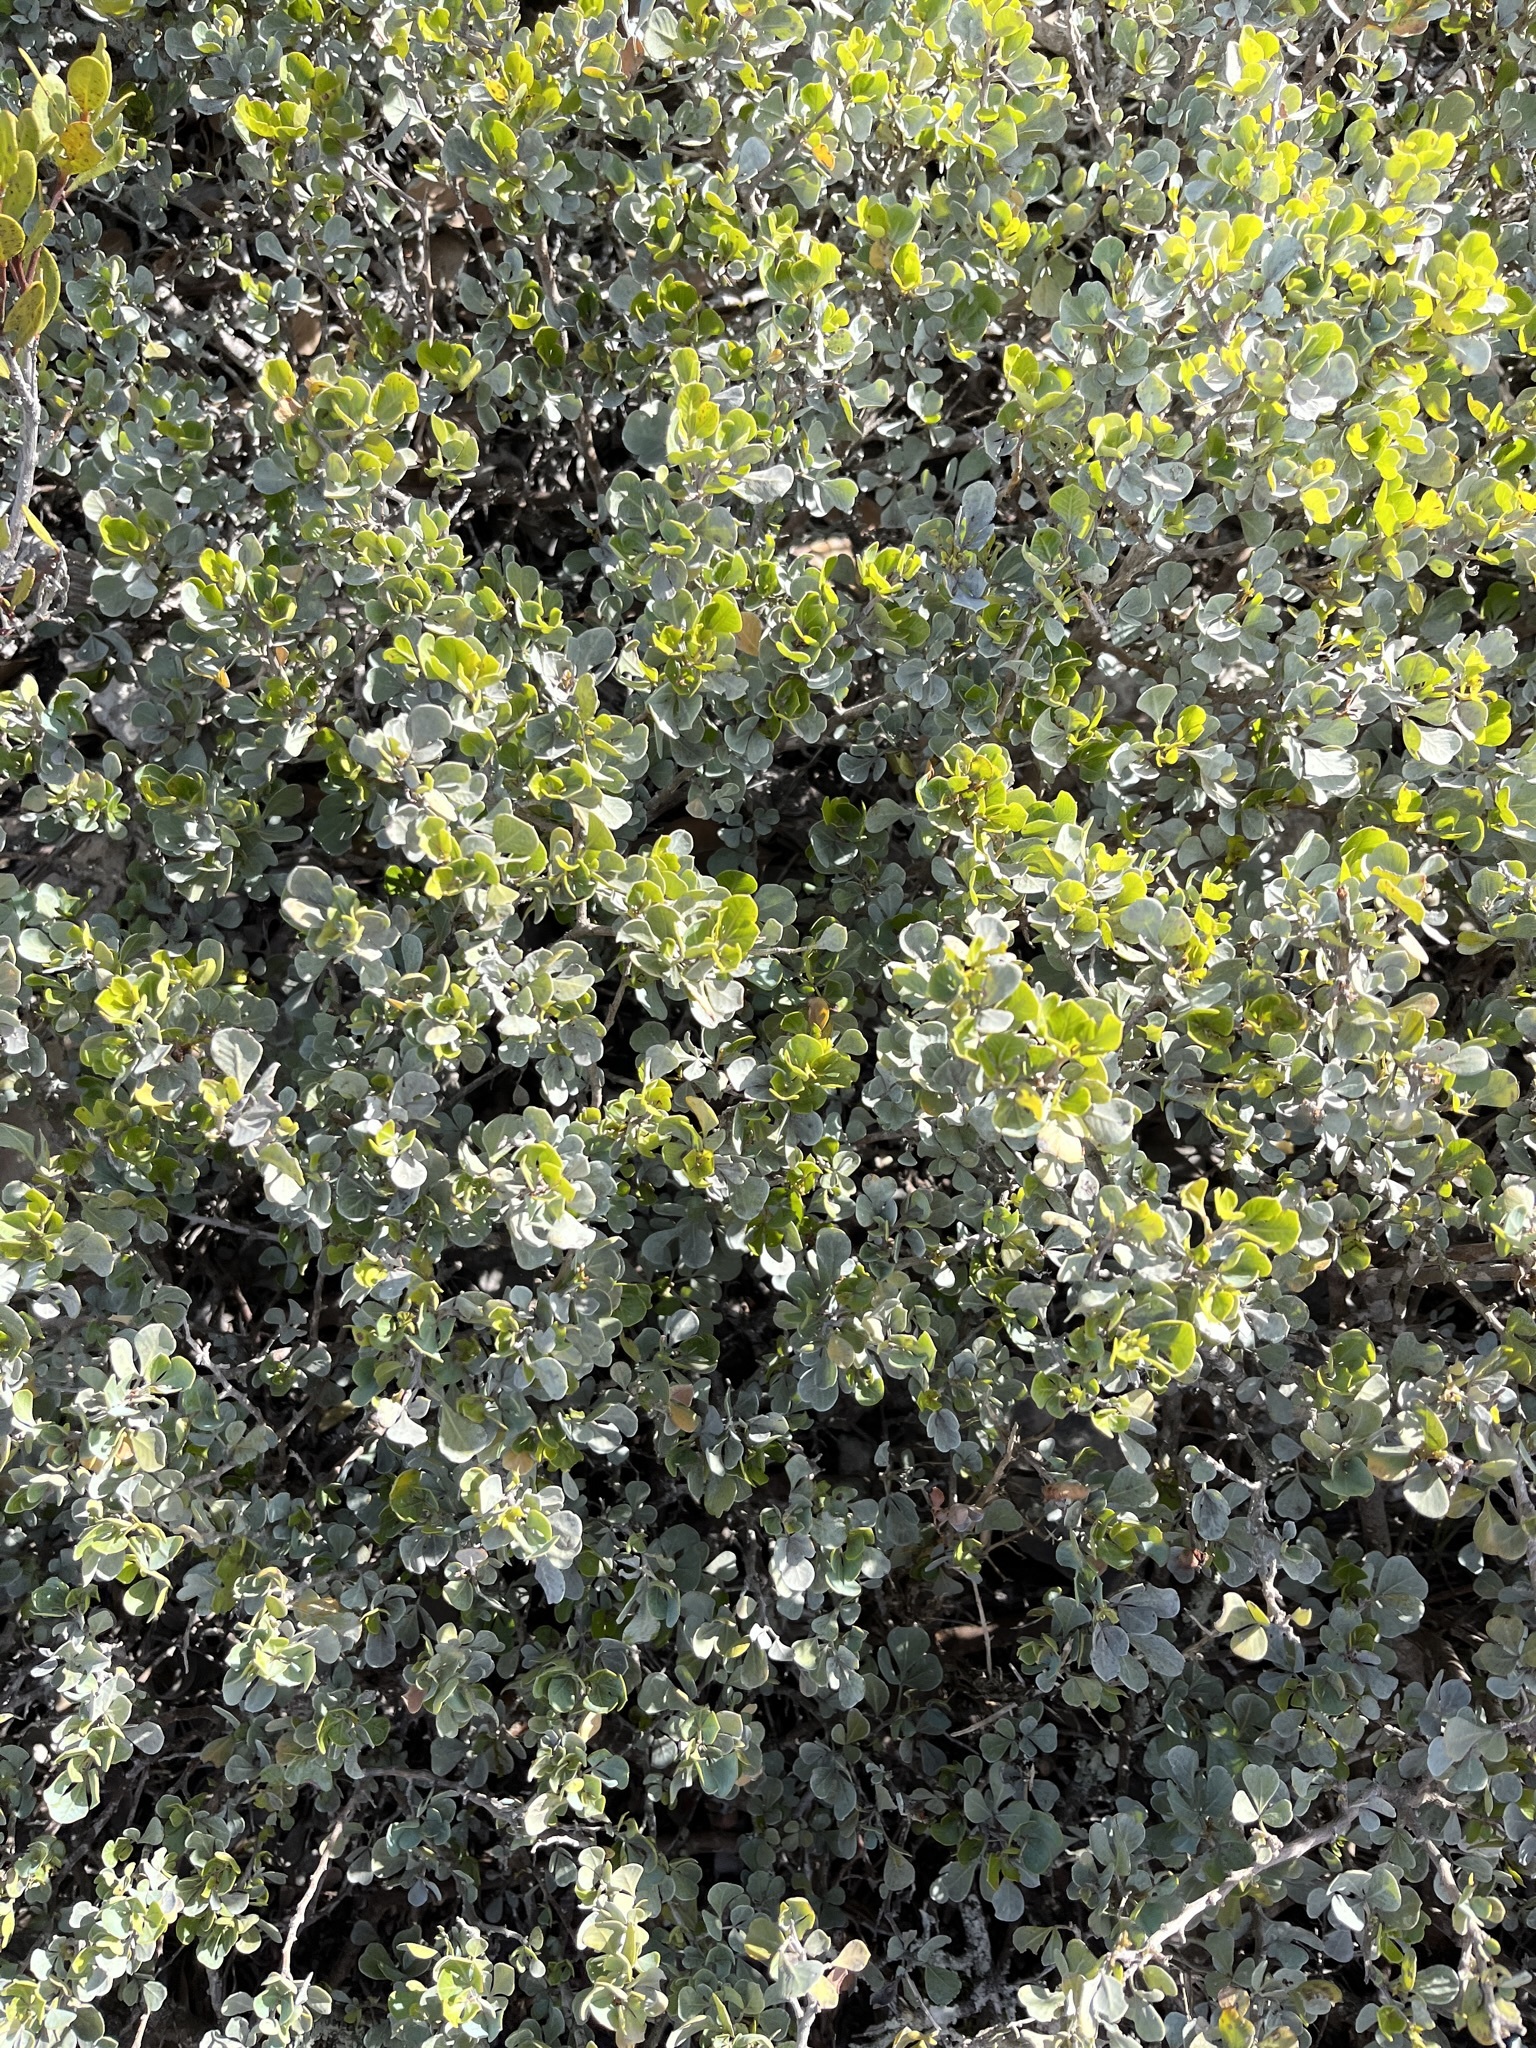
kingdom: Plantae
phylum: Tracheophyta
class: Magnoliopsida
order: Sapindales
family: Anacardiaceae
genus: Searsia
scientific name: Searsia glauca
